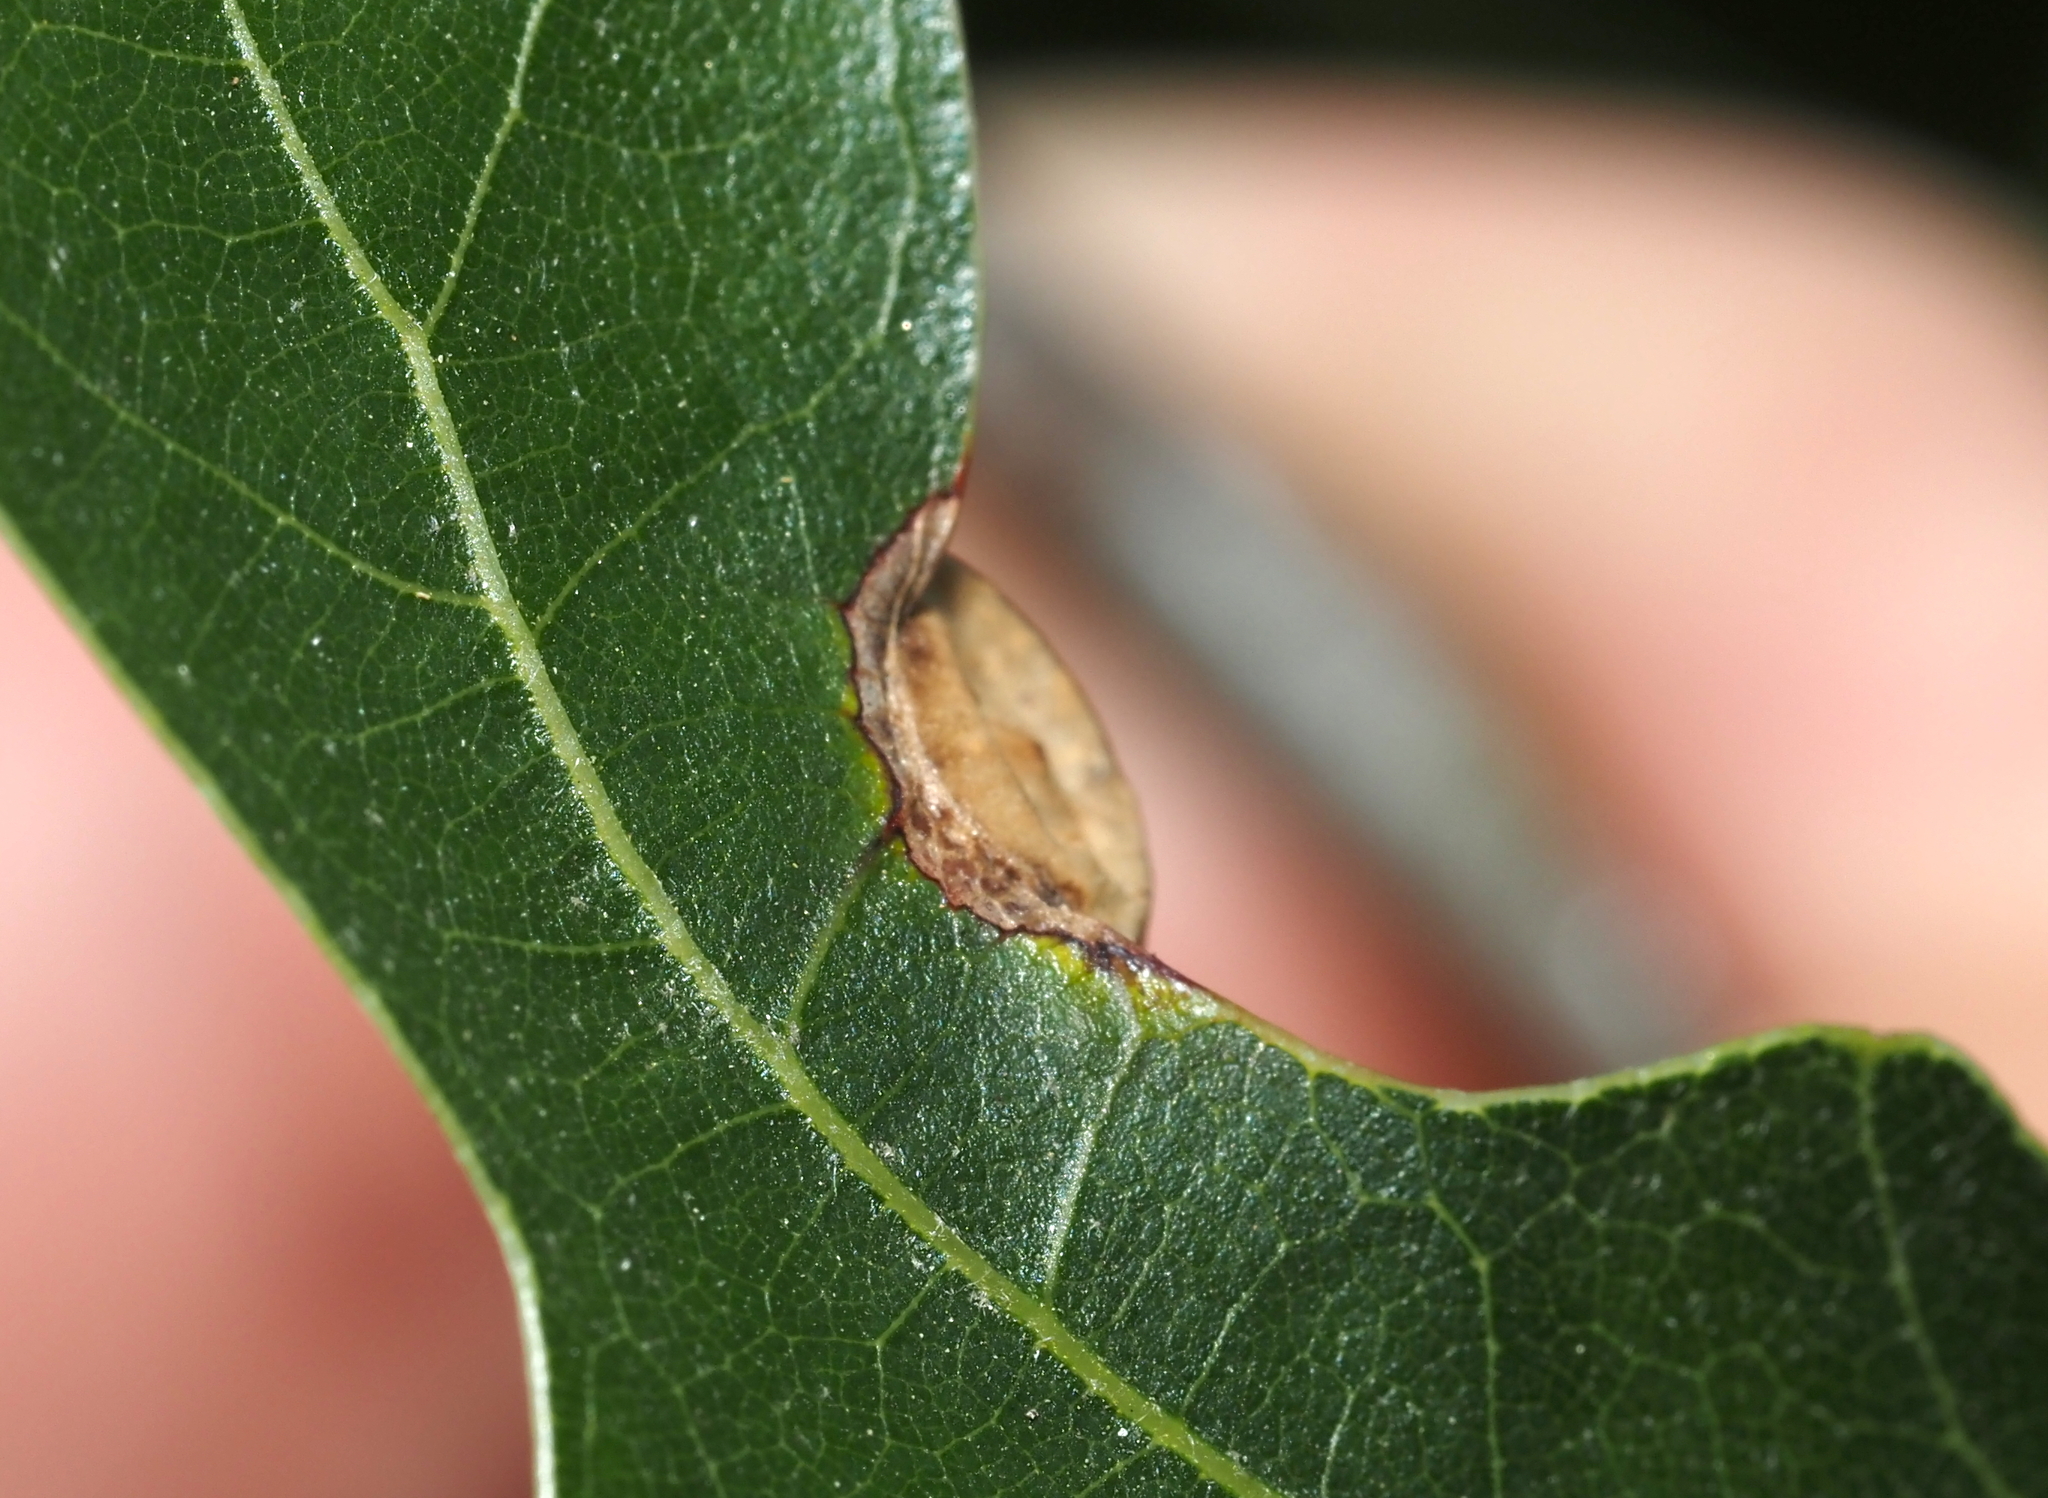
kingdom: Animalia
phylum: Arthropoda
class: Insecta
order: Hymenoptera
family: Cynipidae
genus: Amphibolips
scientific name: Amphibolips
